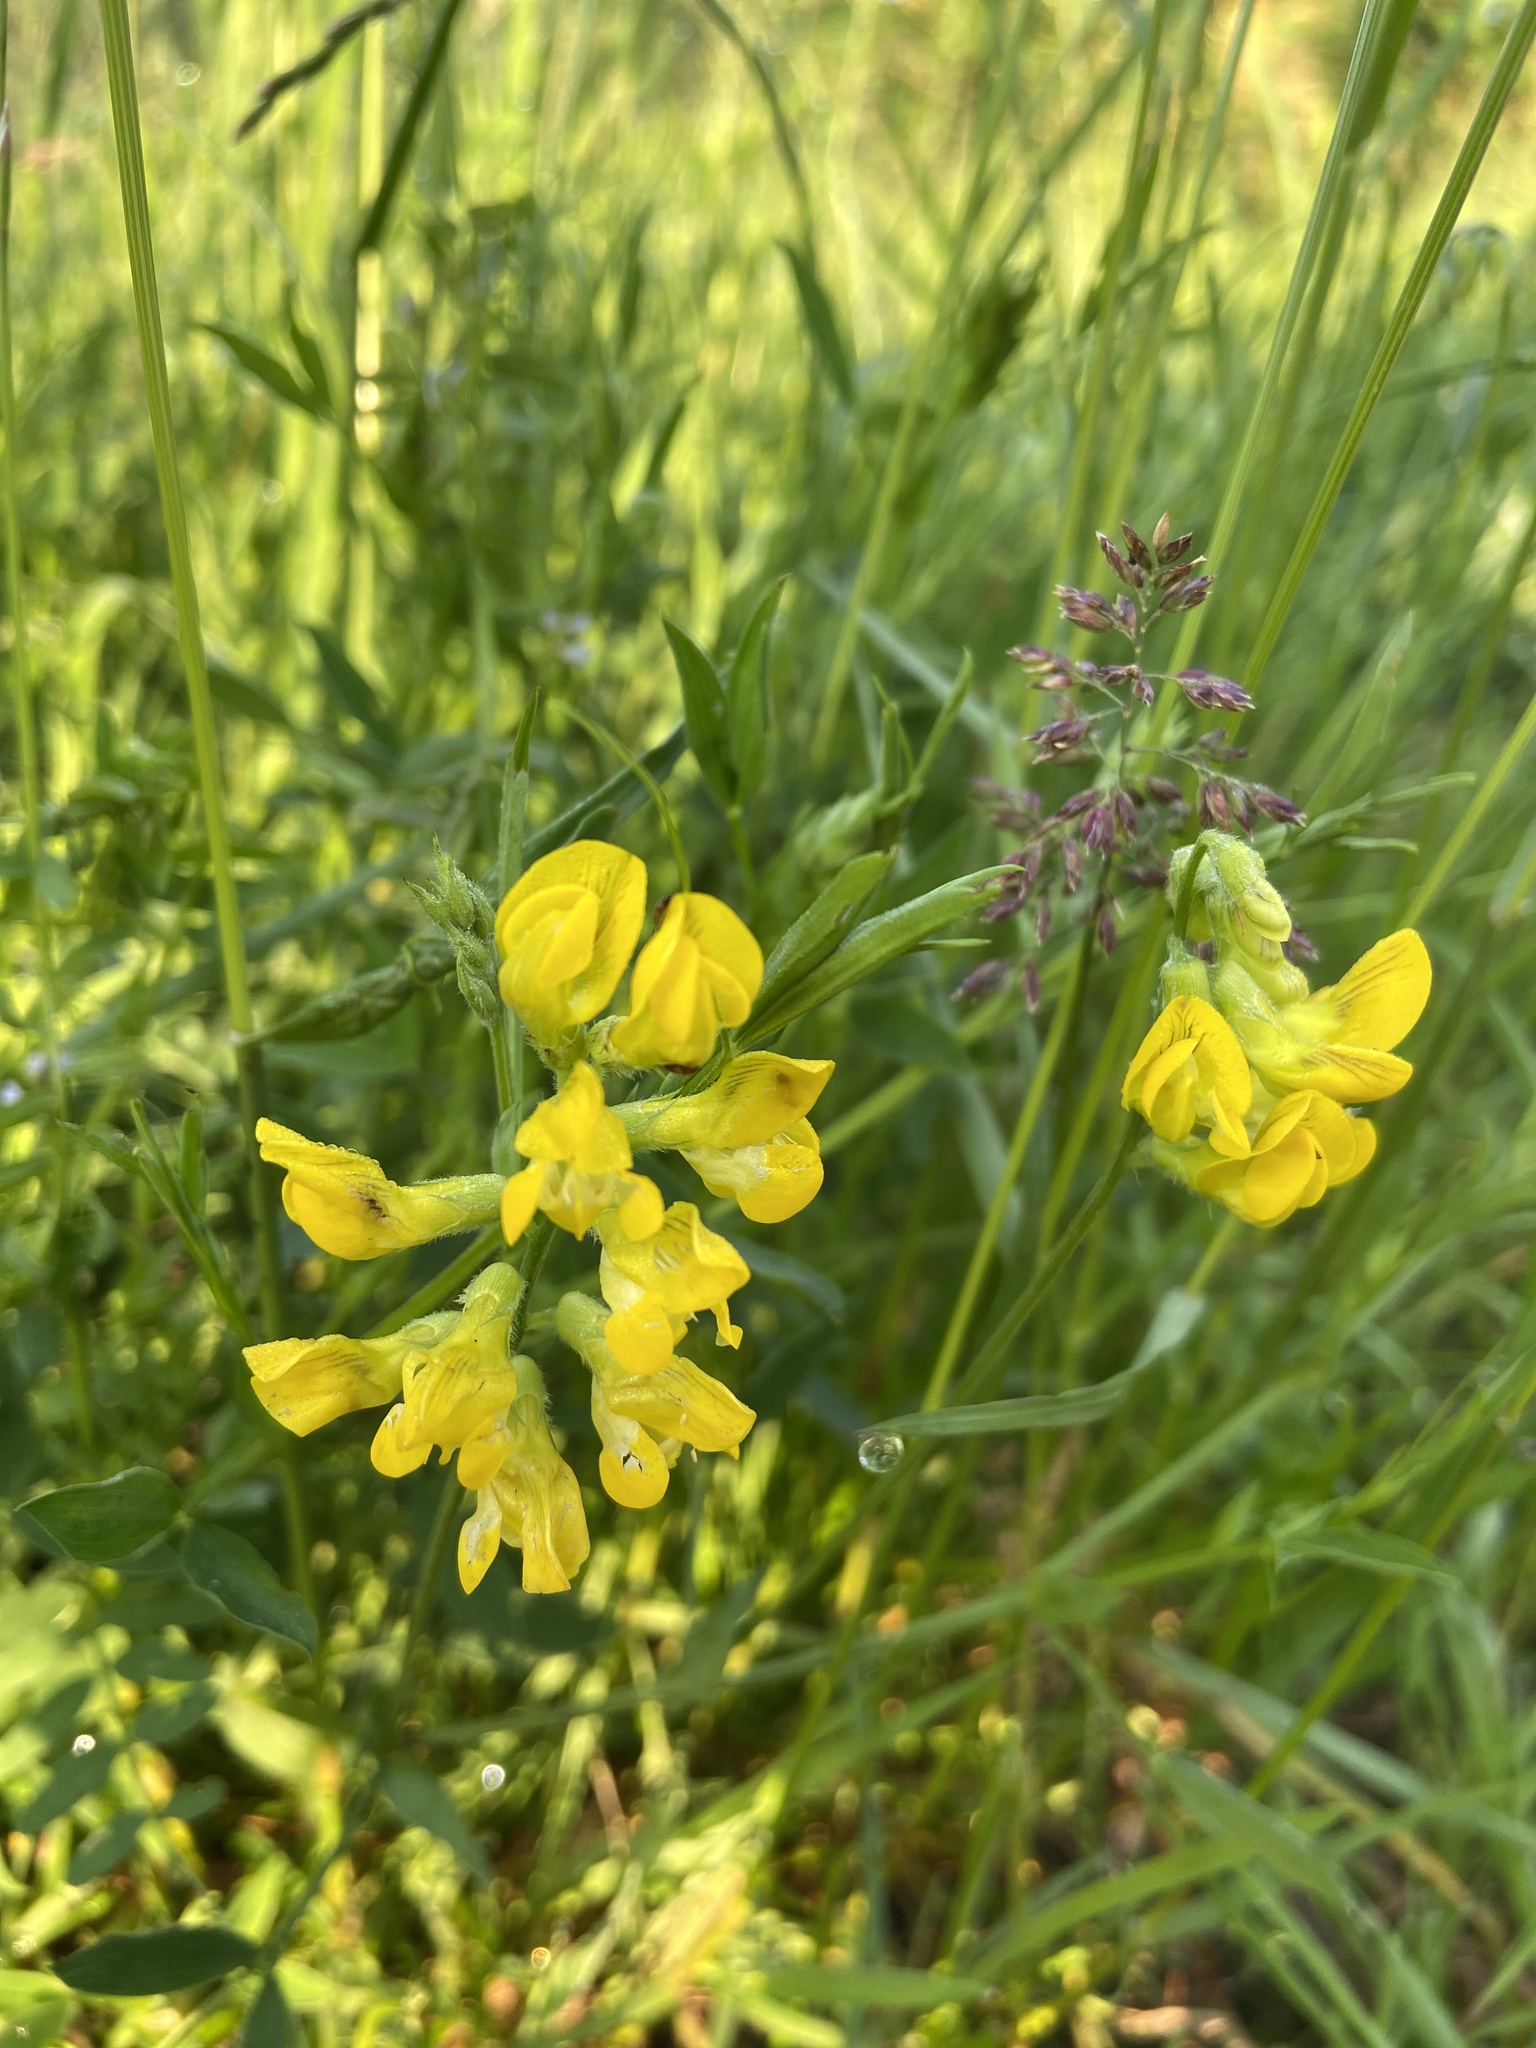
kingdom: Plantae
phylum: Tracheophyta
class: Magnoliopsida
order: Fabales
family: Fabaceae
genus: Lathyrus
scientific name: Lathyrus pratensis
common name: Meadow vetchling
